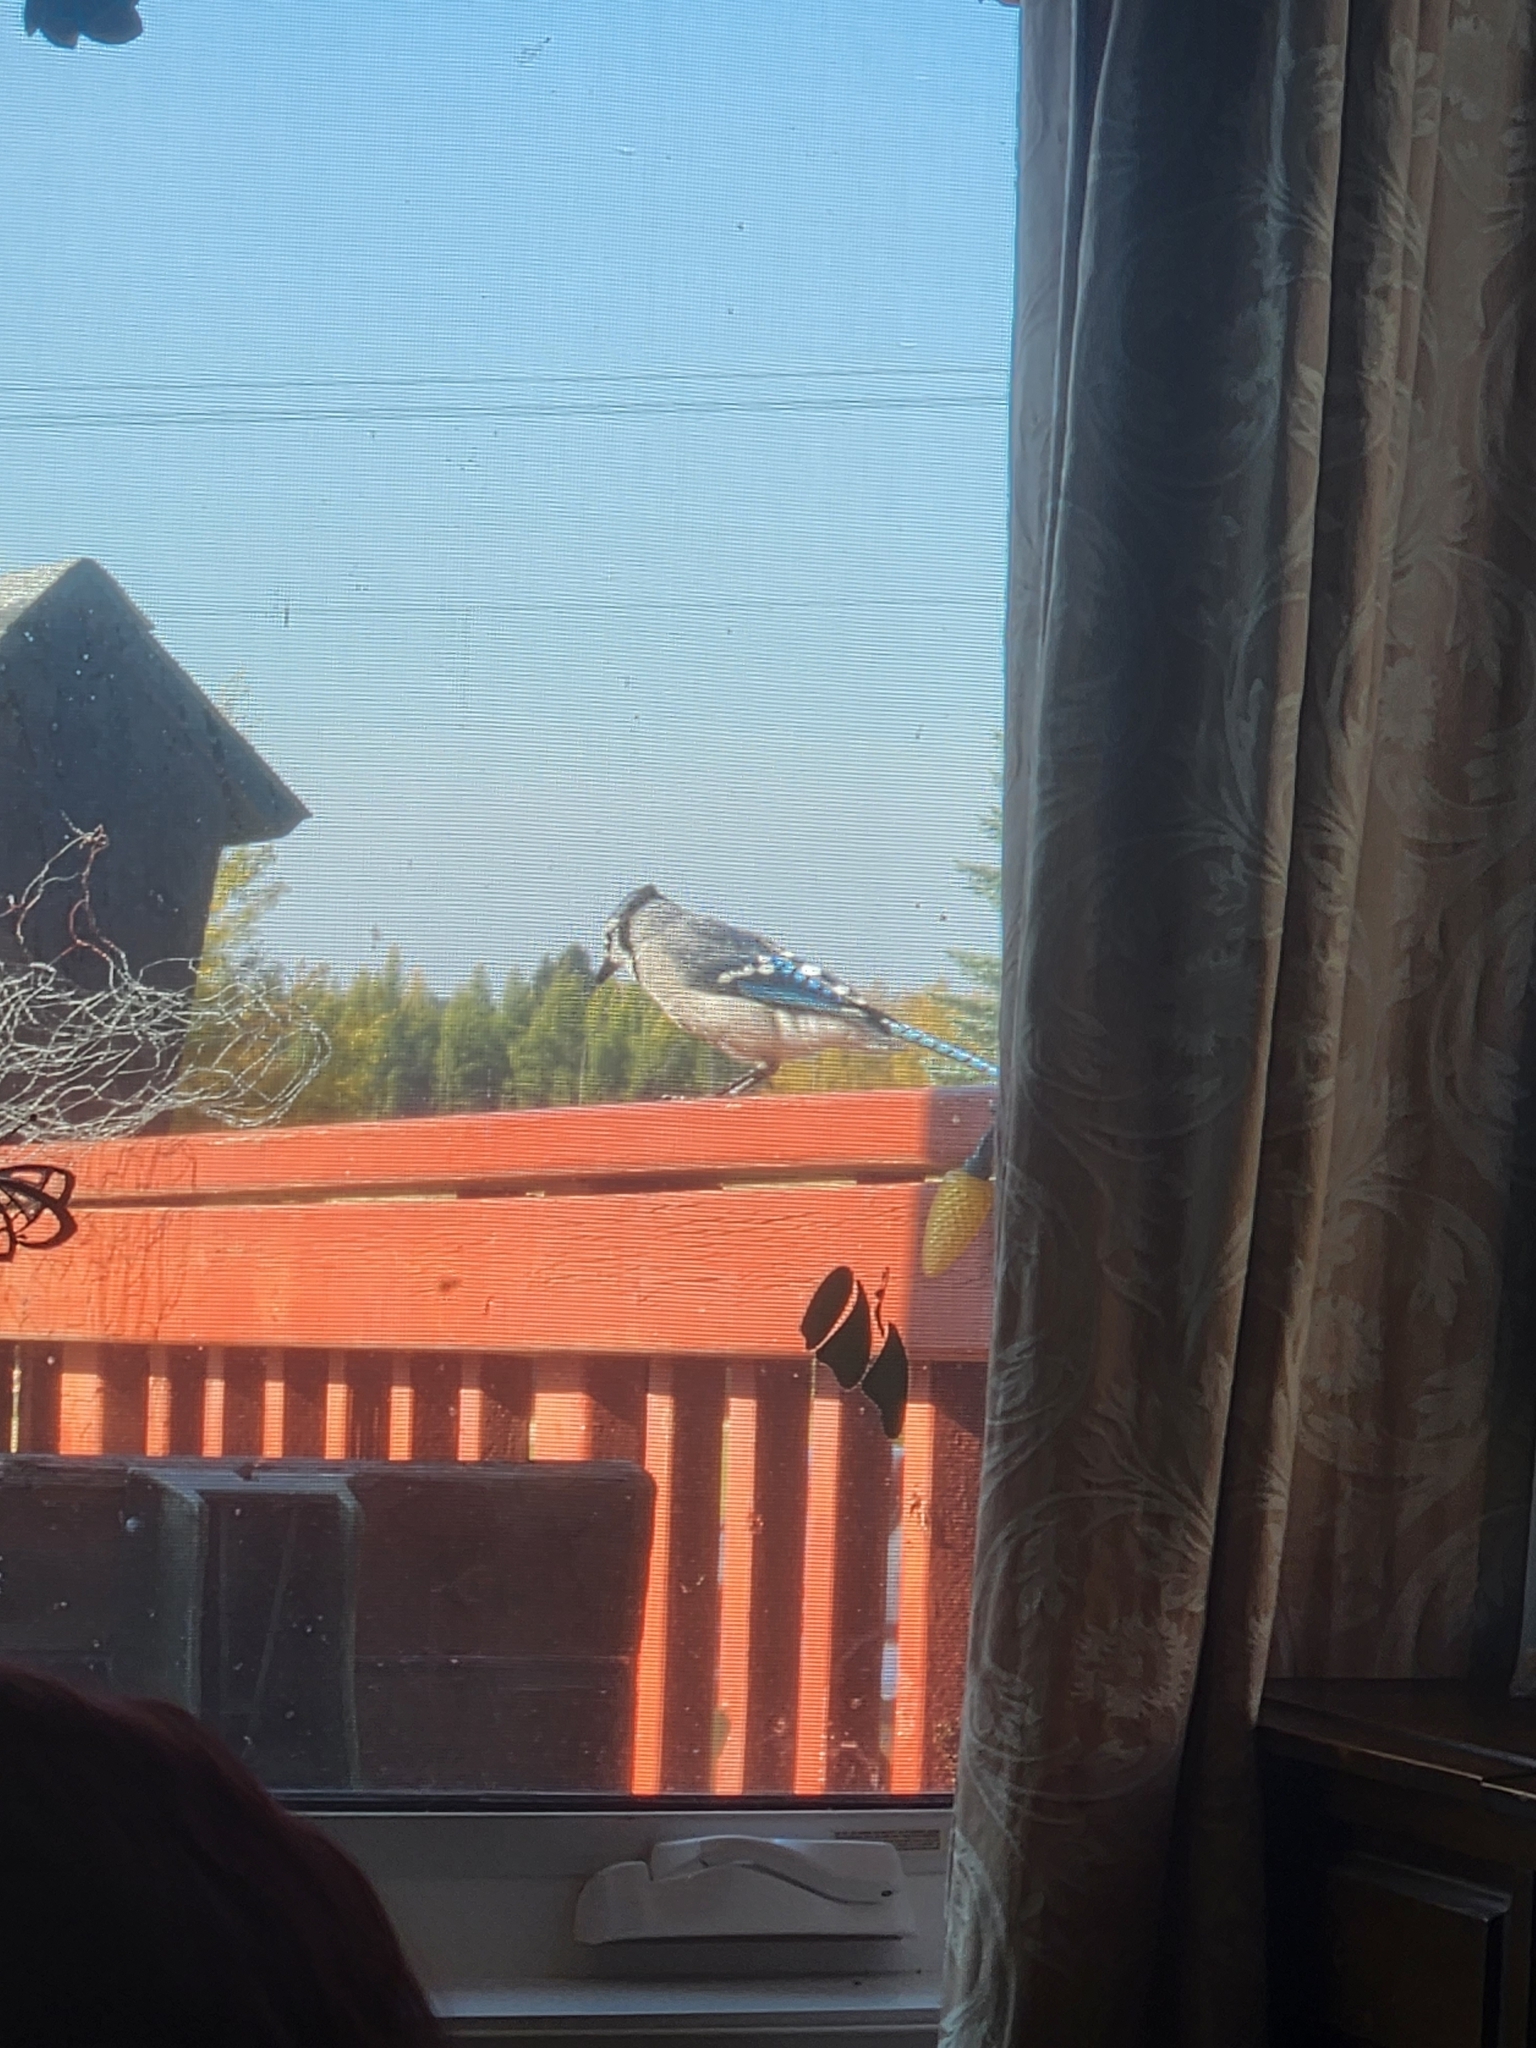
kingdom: Animalia
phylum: Chordata
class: Aves
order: Passeriformes
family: Corvidae
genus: Cyanocitta
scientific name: Cyanocitta cristata
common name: Blue jay
